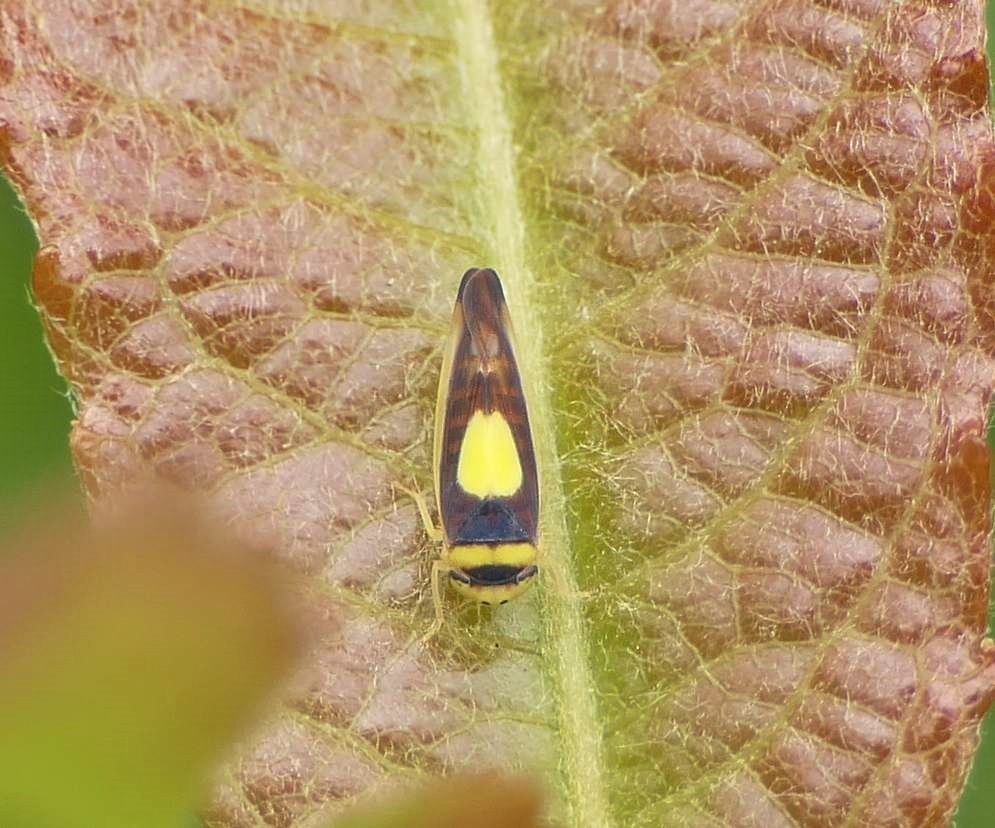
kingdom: Animalia
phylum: Arthropoda
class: Insecta
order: Hemiptera
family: Cicadellidae
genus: Colladonus
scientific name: Colladonus clitellarius
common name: The saddleback leafhopper
